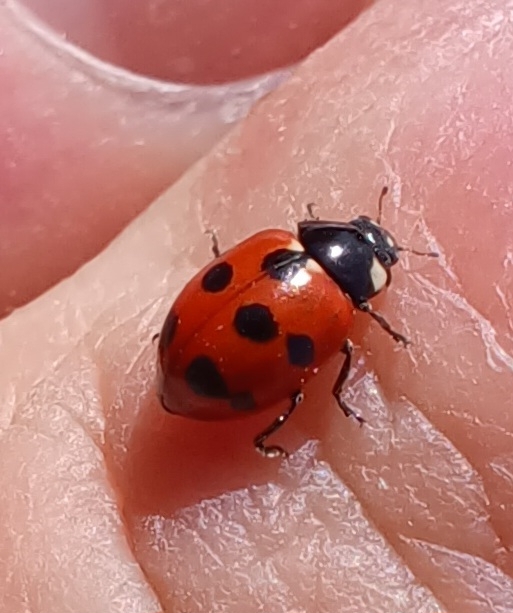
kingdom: Animalia
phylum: Arthropoda
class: Insecta
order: Coleoptera
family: Coccinellidae
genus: Coccinella
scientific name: Coccinella undecimpunctata
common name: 11-spot ladybird
